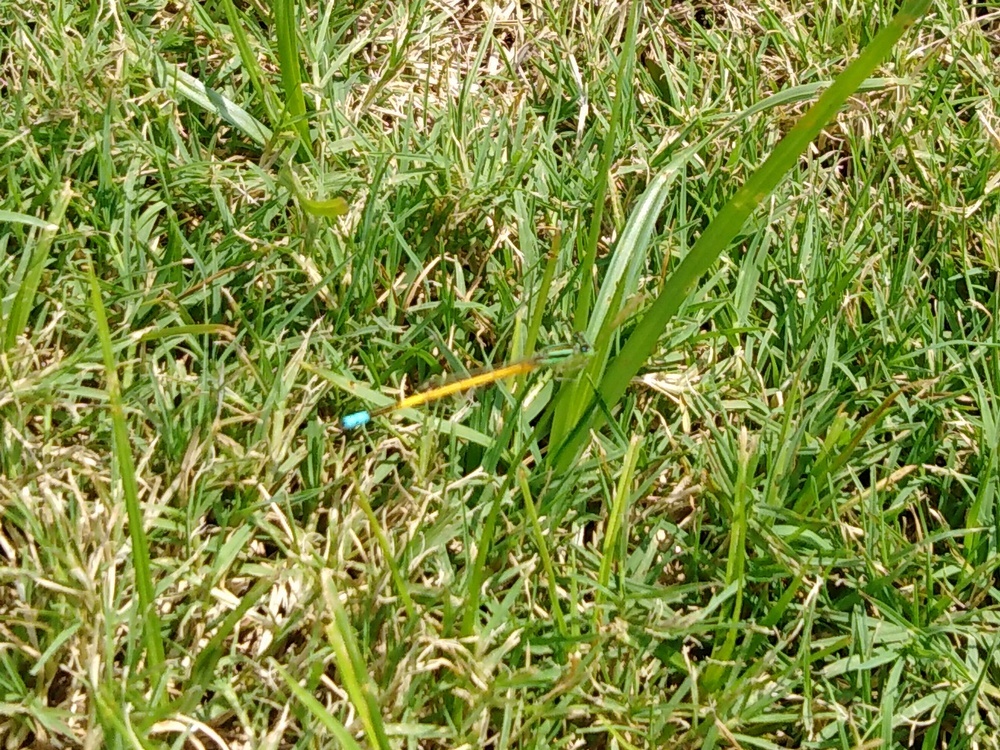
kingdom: Animalia
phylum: Arthropoda
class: Insecta
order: Odonata
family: Coenagrionidae
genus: Ischnura
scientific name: Ischnura rubilio
